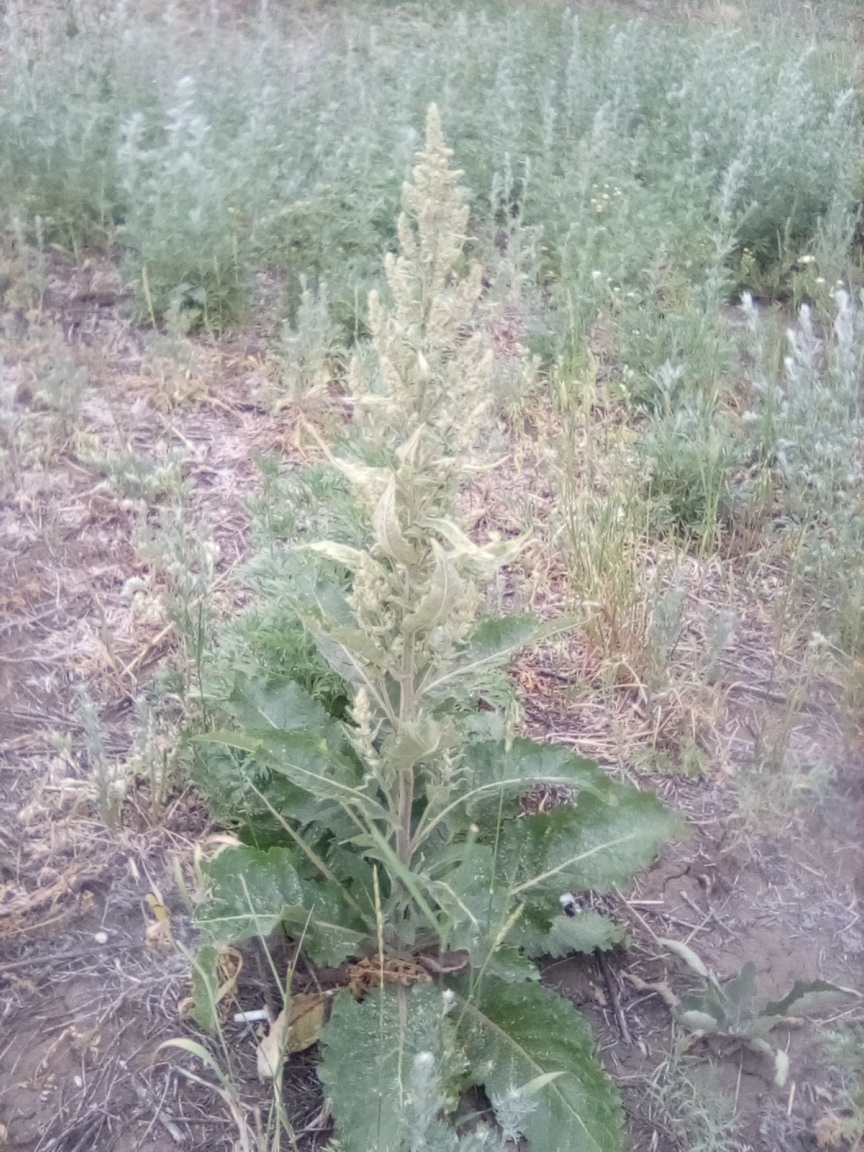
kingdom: Plantae
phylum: Tracheophyta
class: Magnoliopsida
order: Lamiales
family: Scrophulariaceae
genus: Verbascum
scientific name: Verbascum lychnitis
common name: White mullein
